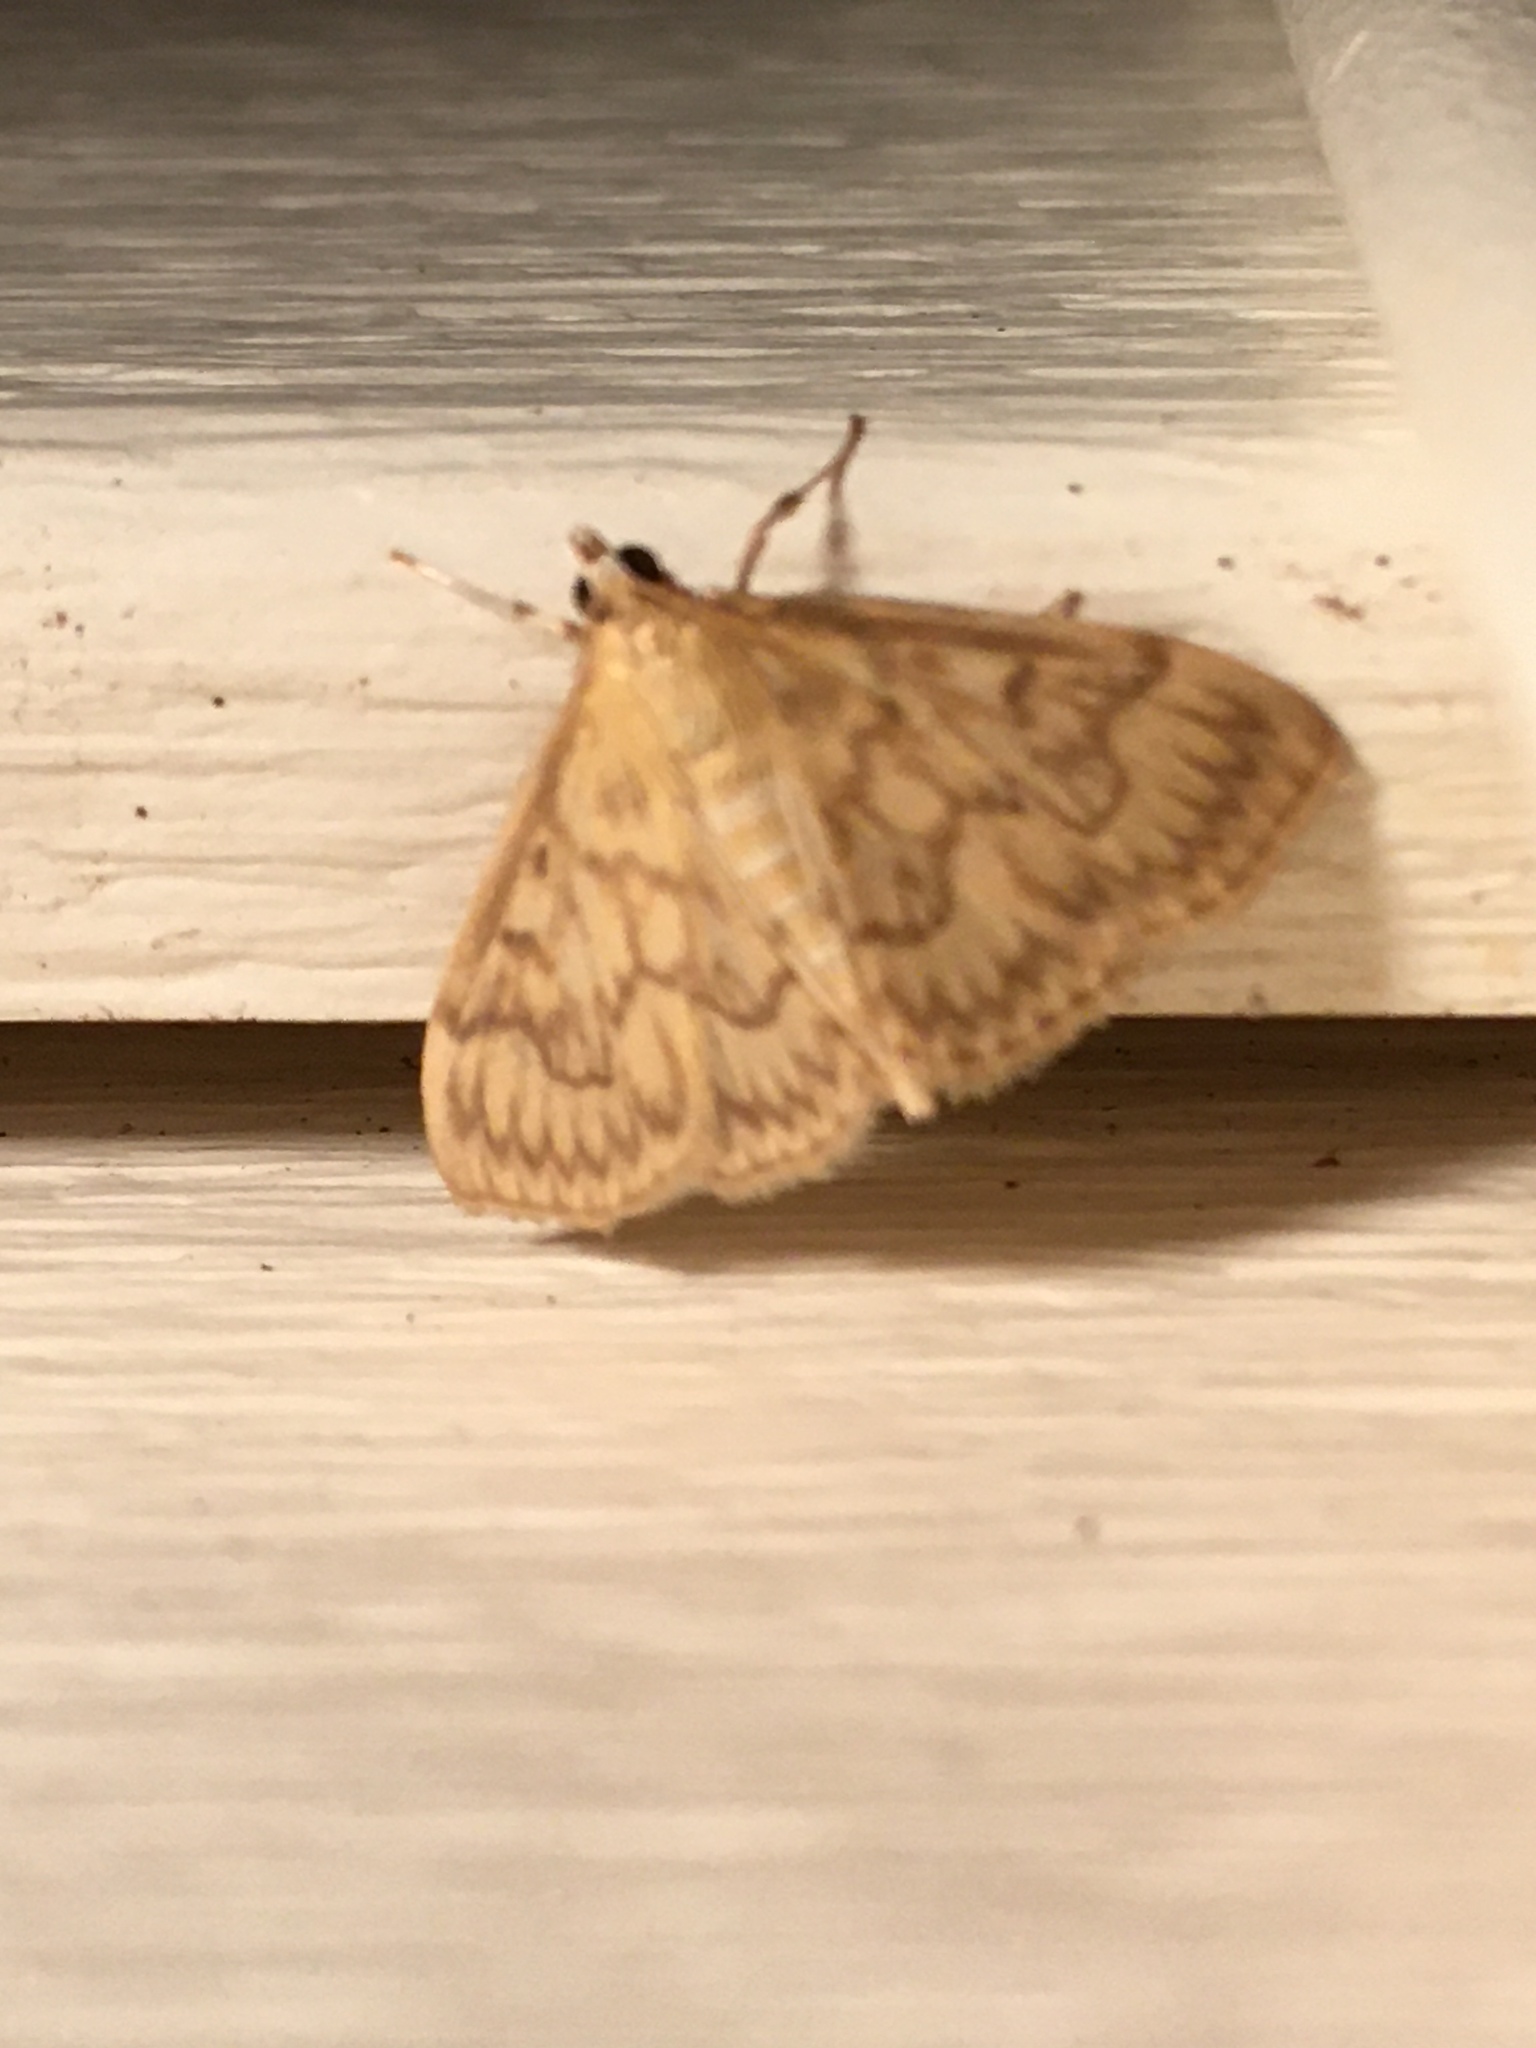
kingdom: Animalia
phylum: Arthropoda
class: Insecta
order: Lepidoptera
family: Crambidae
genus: Crocidophora
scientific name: Crocidophora serratissimalis
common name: Saw-toothed crocidophora moth
